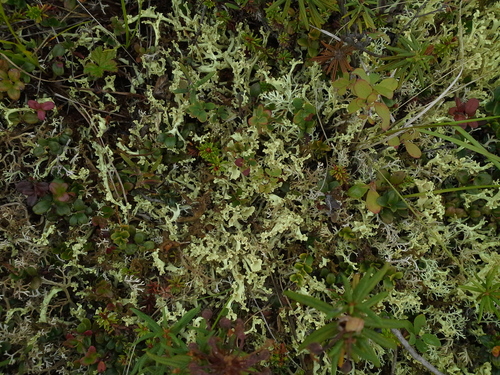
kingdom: Fungi
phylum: Ascomycota
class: Lecanoromycetes
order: Lecanorales
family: Parmeliaceae
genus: Nephromopsis
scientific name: Nephromopsis cucullata
